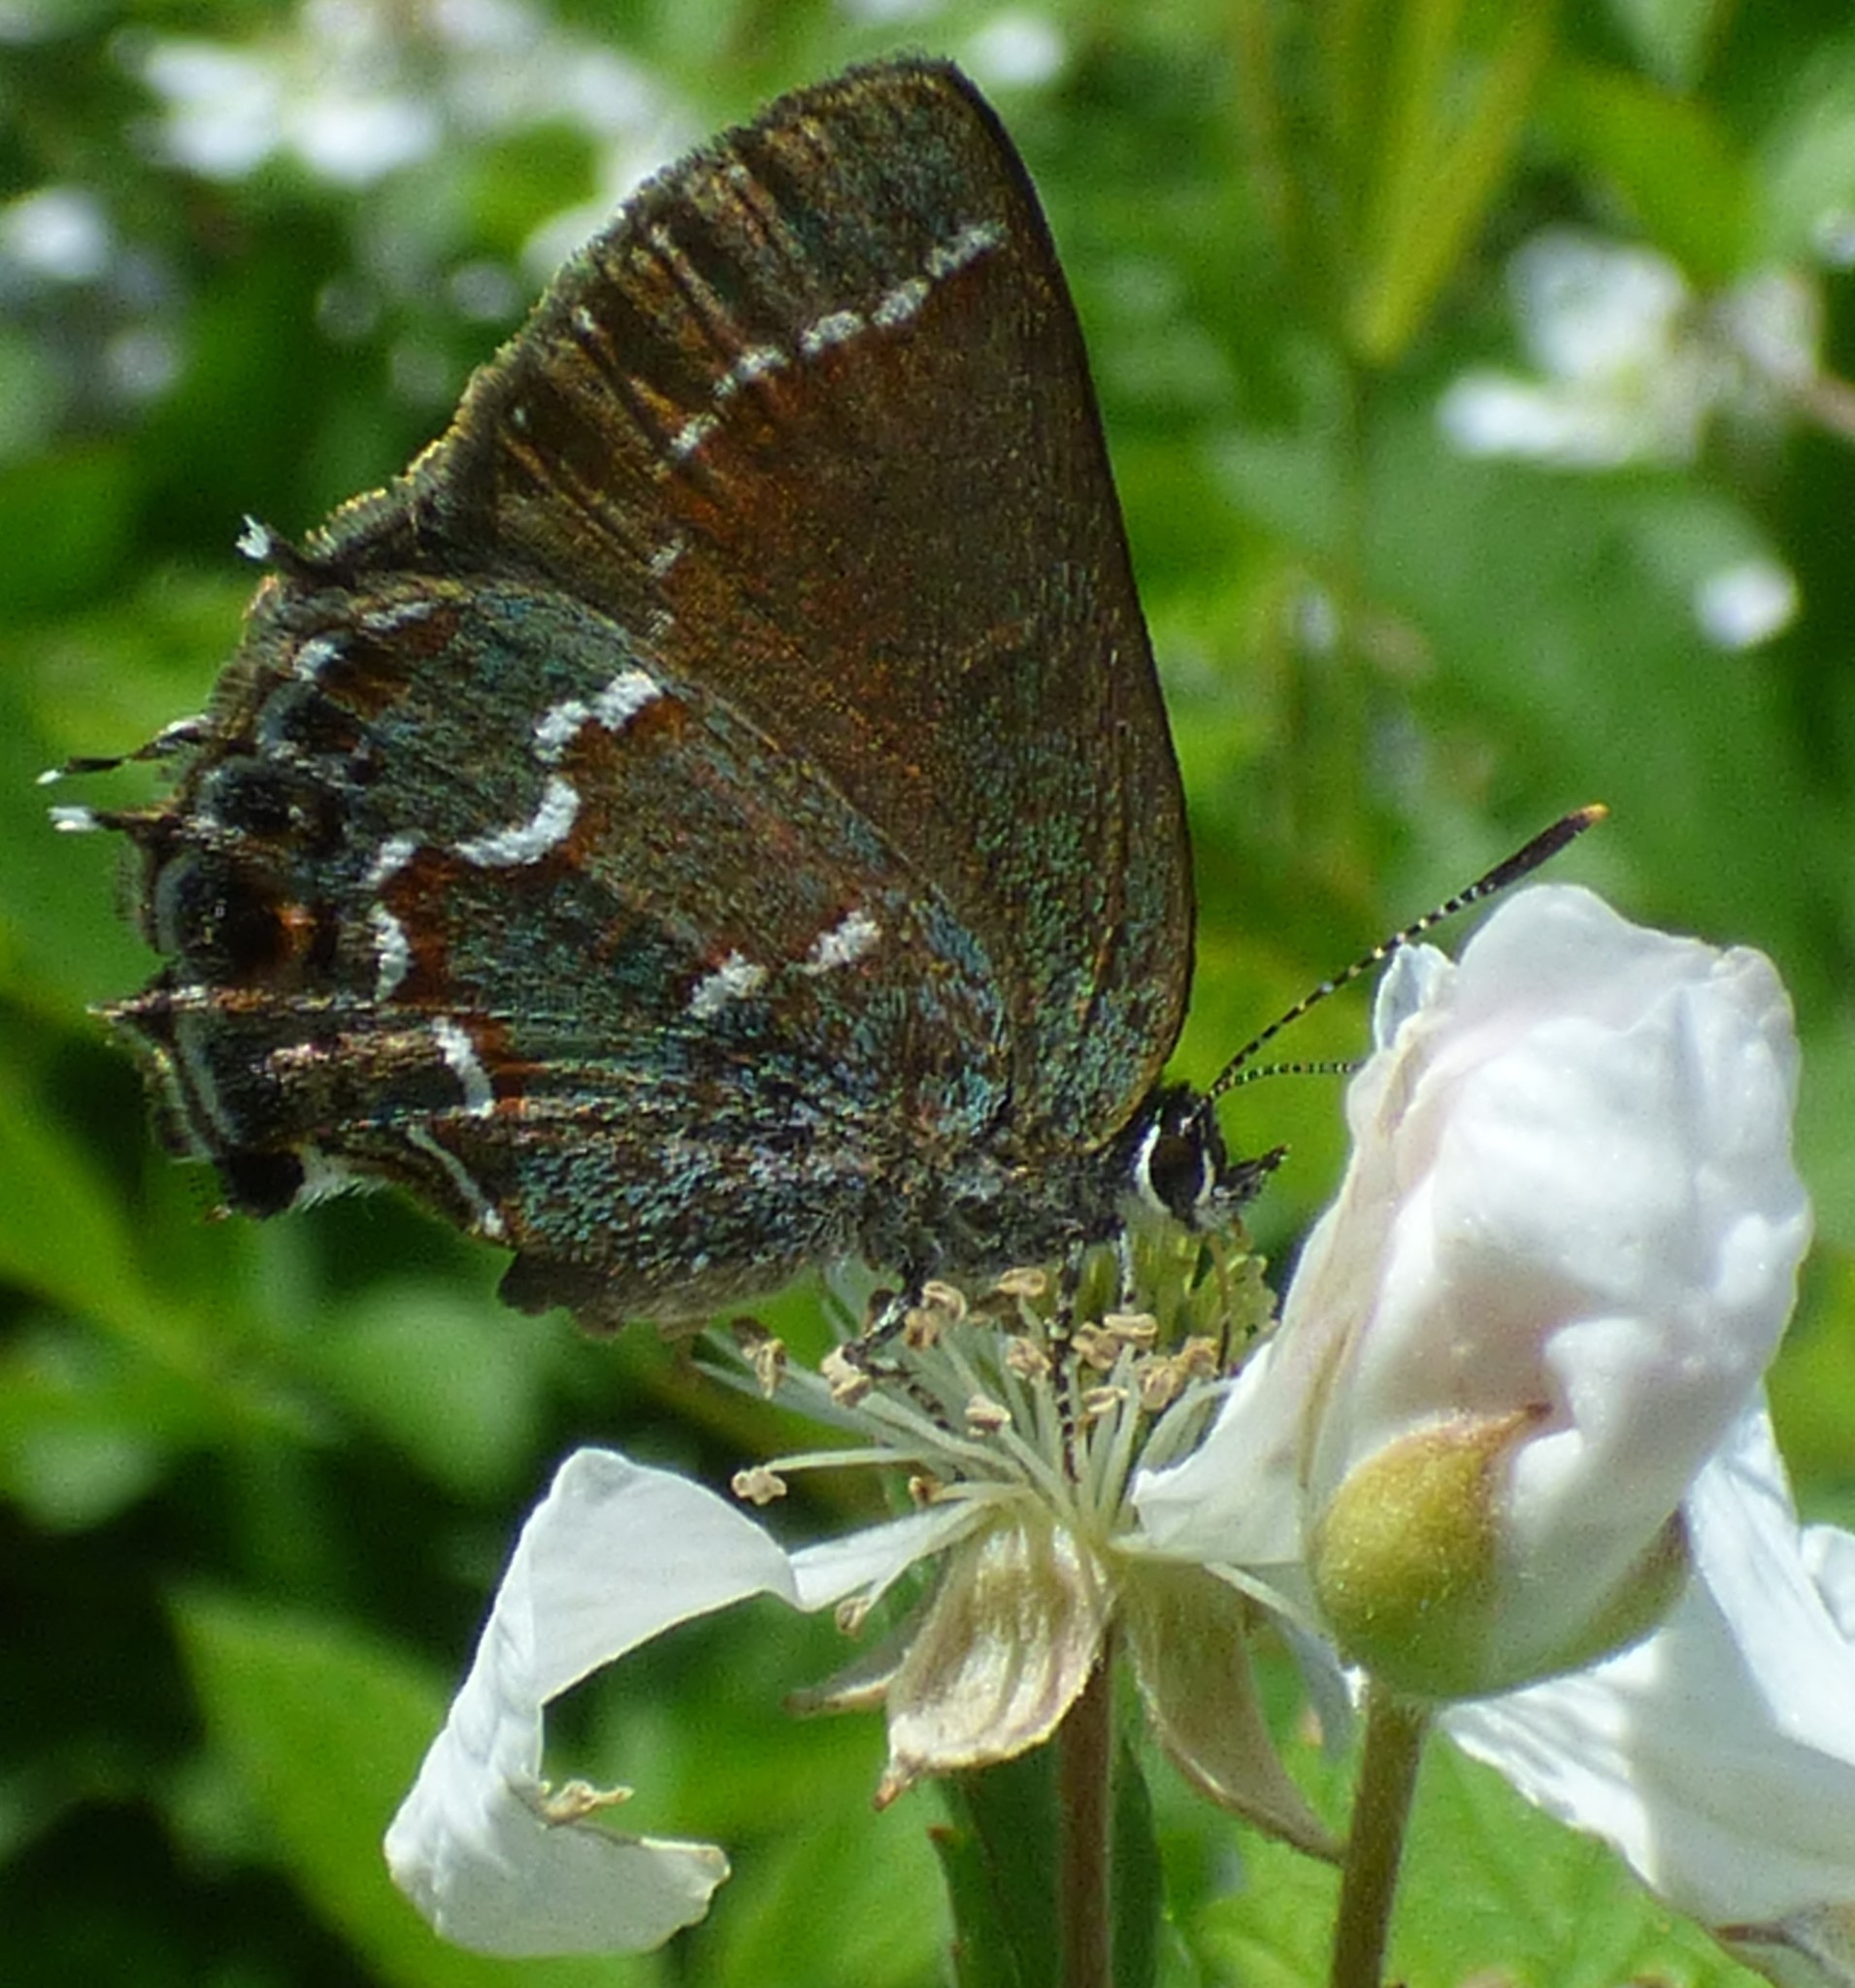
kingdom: Animalia
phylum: Arthropoda
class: Insecta
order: Lepidoptera
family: Lycaenidae
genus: Mitoura
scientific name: Mitoura gryneus
